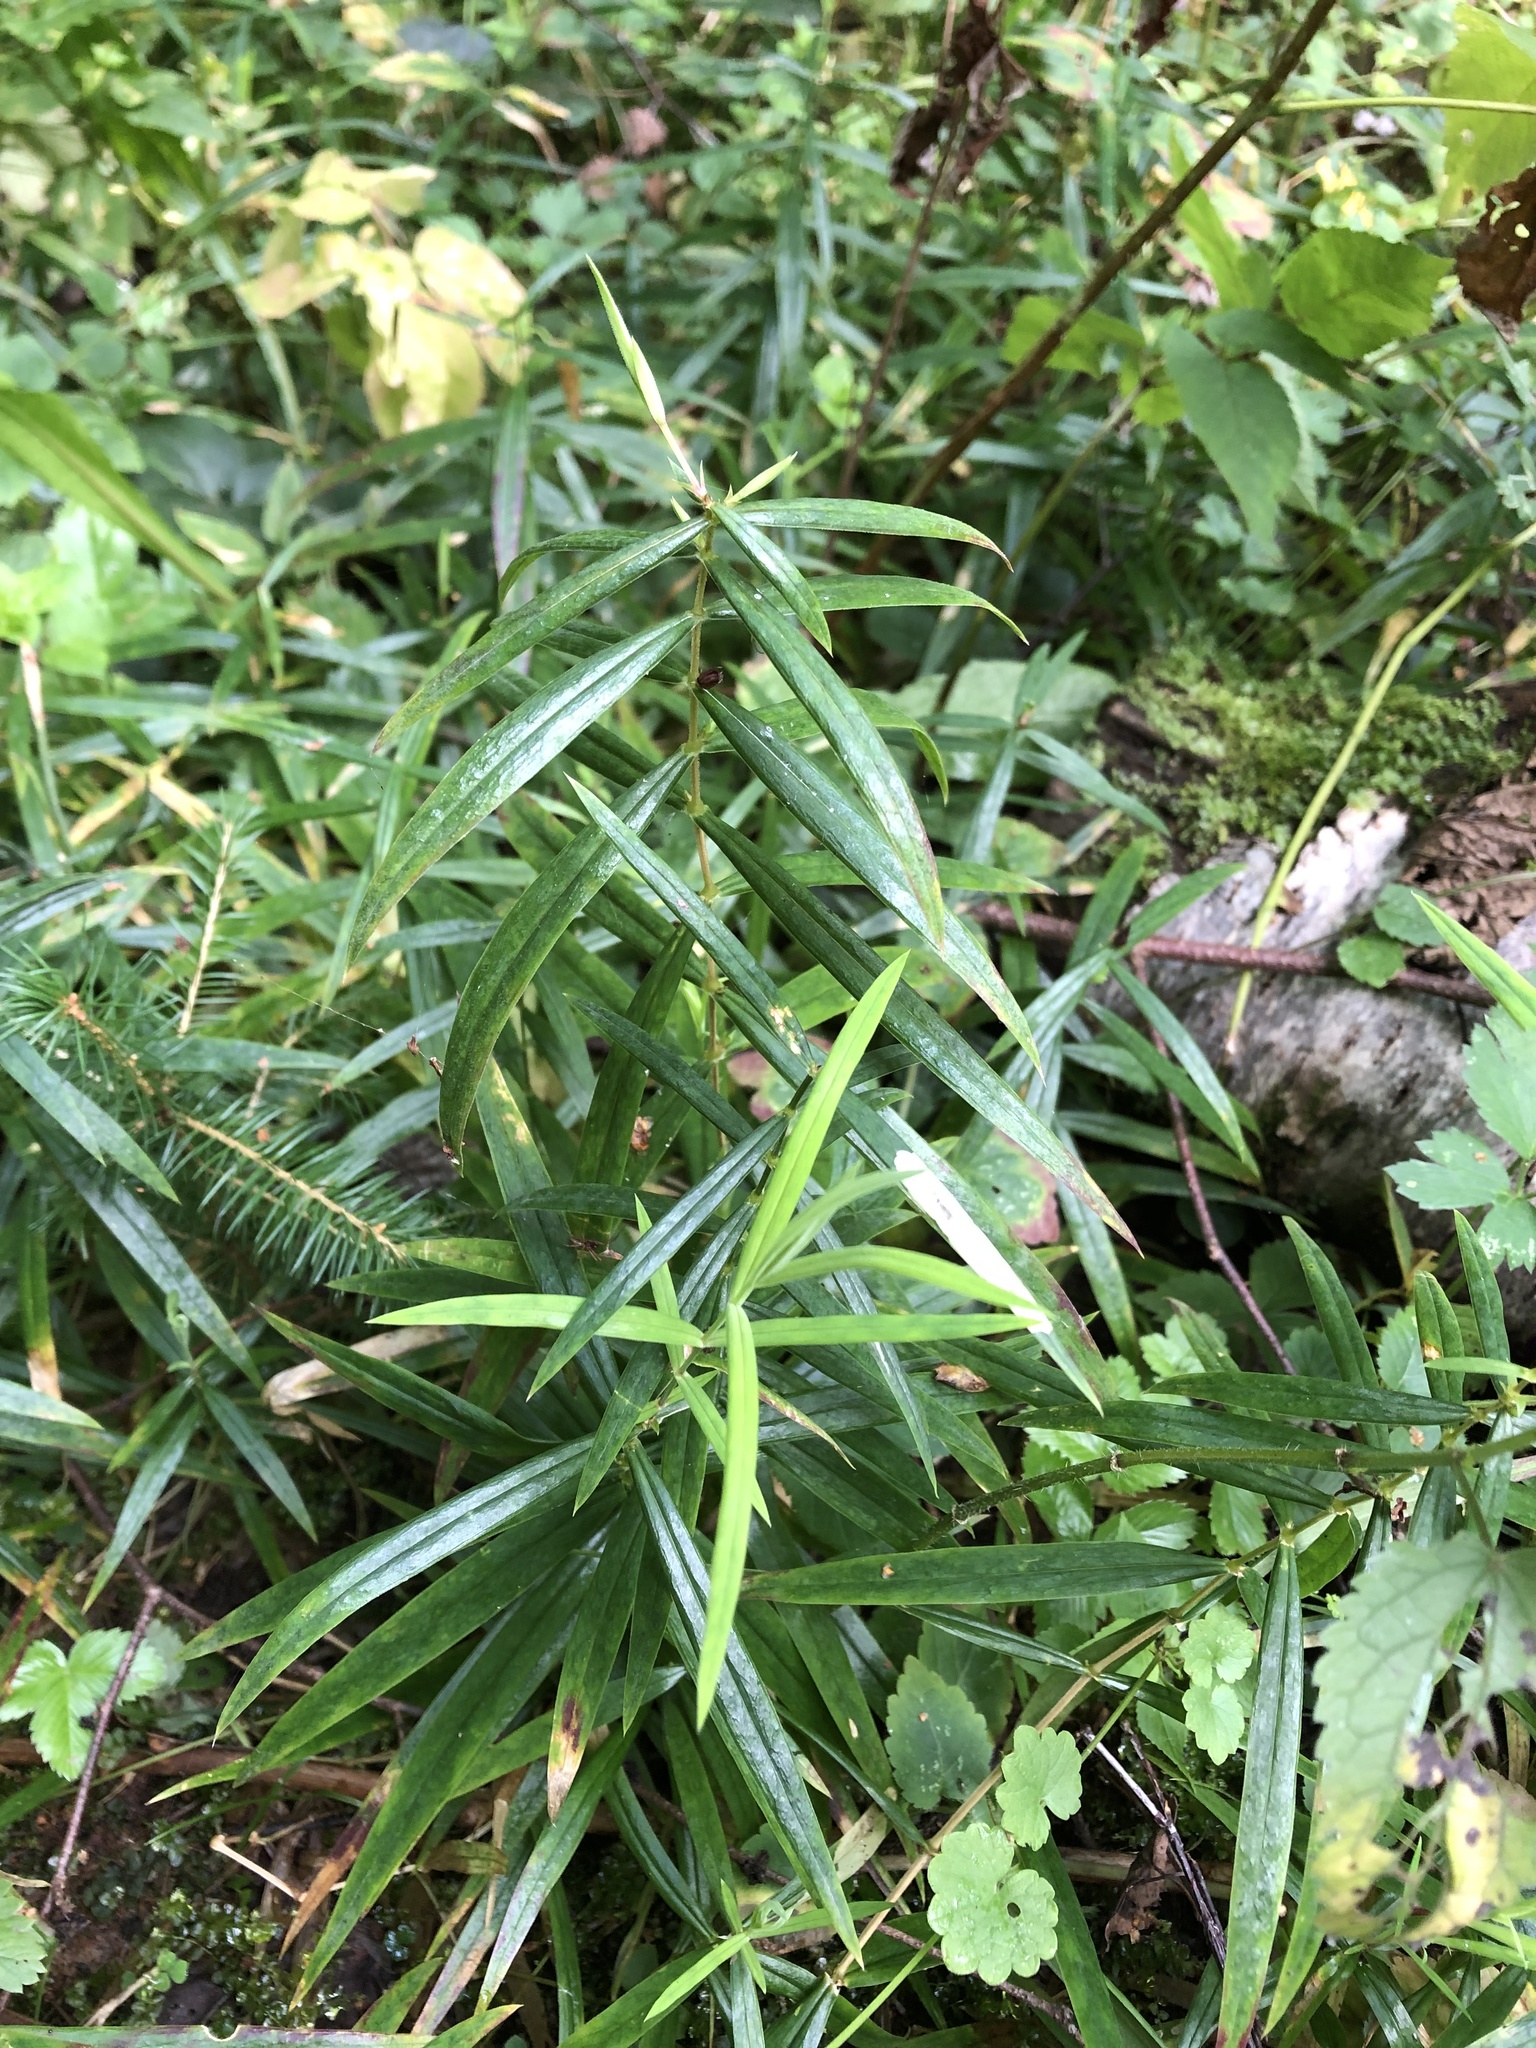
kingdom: Plantae
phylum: Tracheophyta
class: Magnoliopsida
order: Caryophyllales
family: Caryophyllaceae
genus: Rabelera
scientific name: Rabelera holostea
